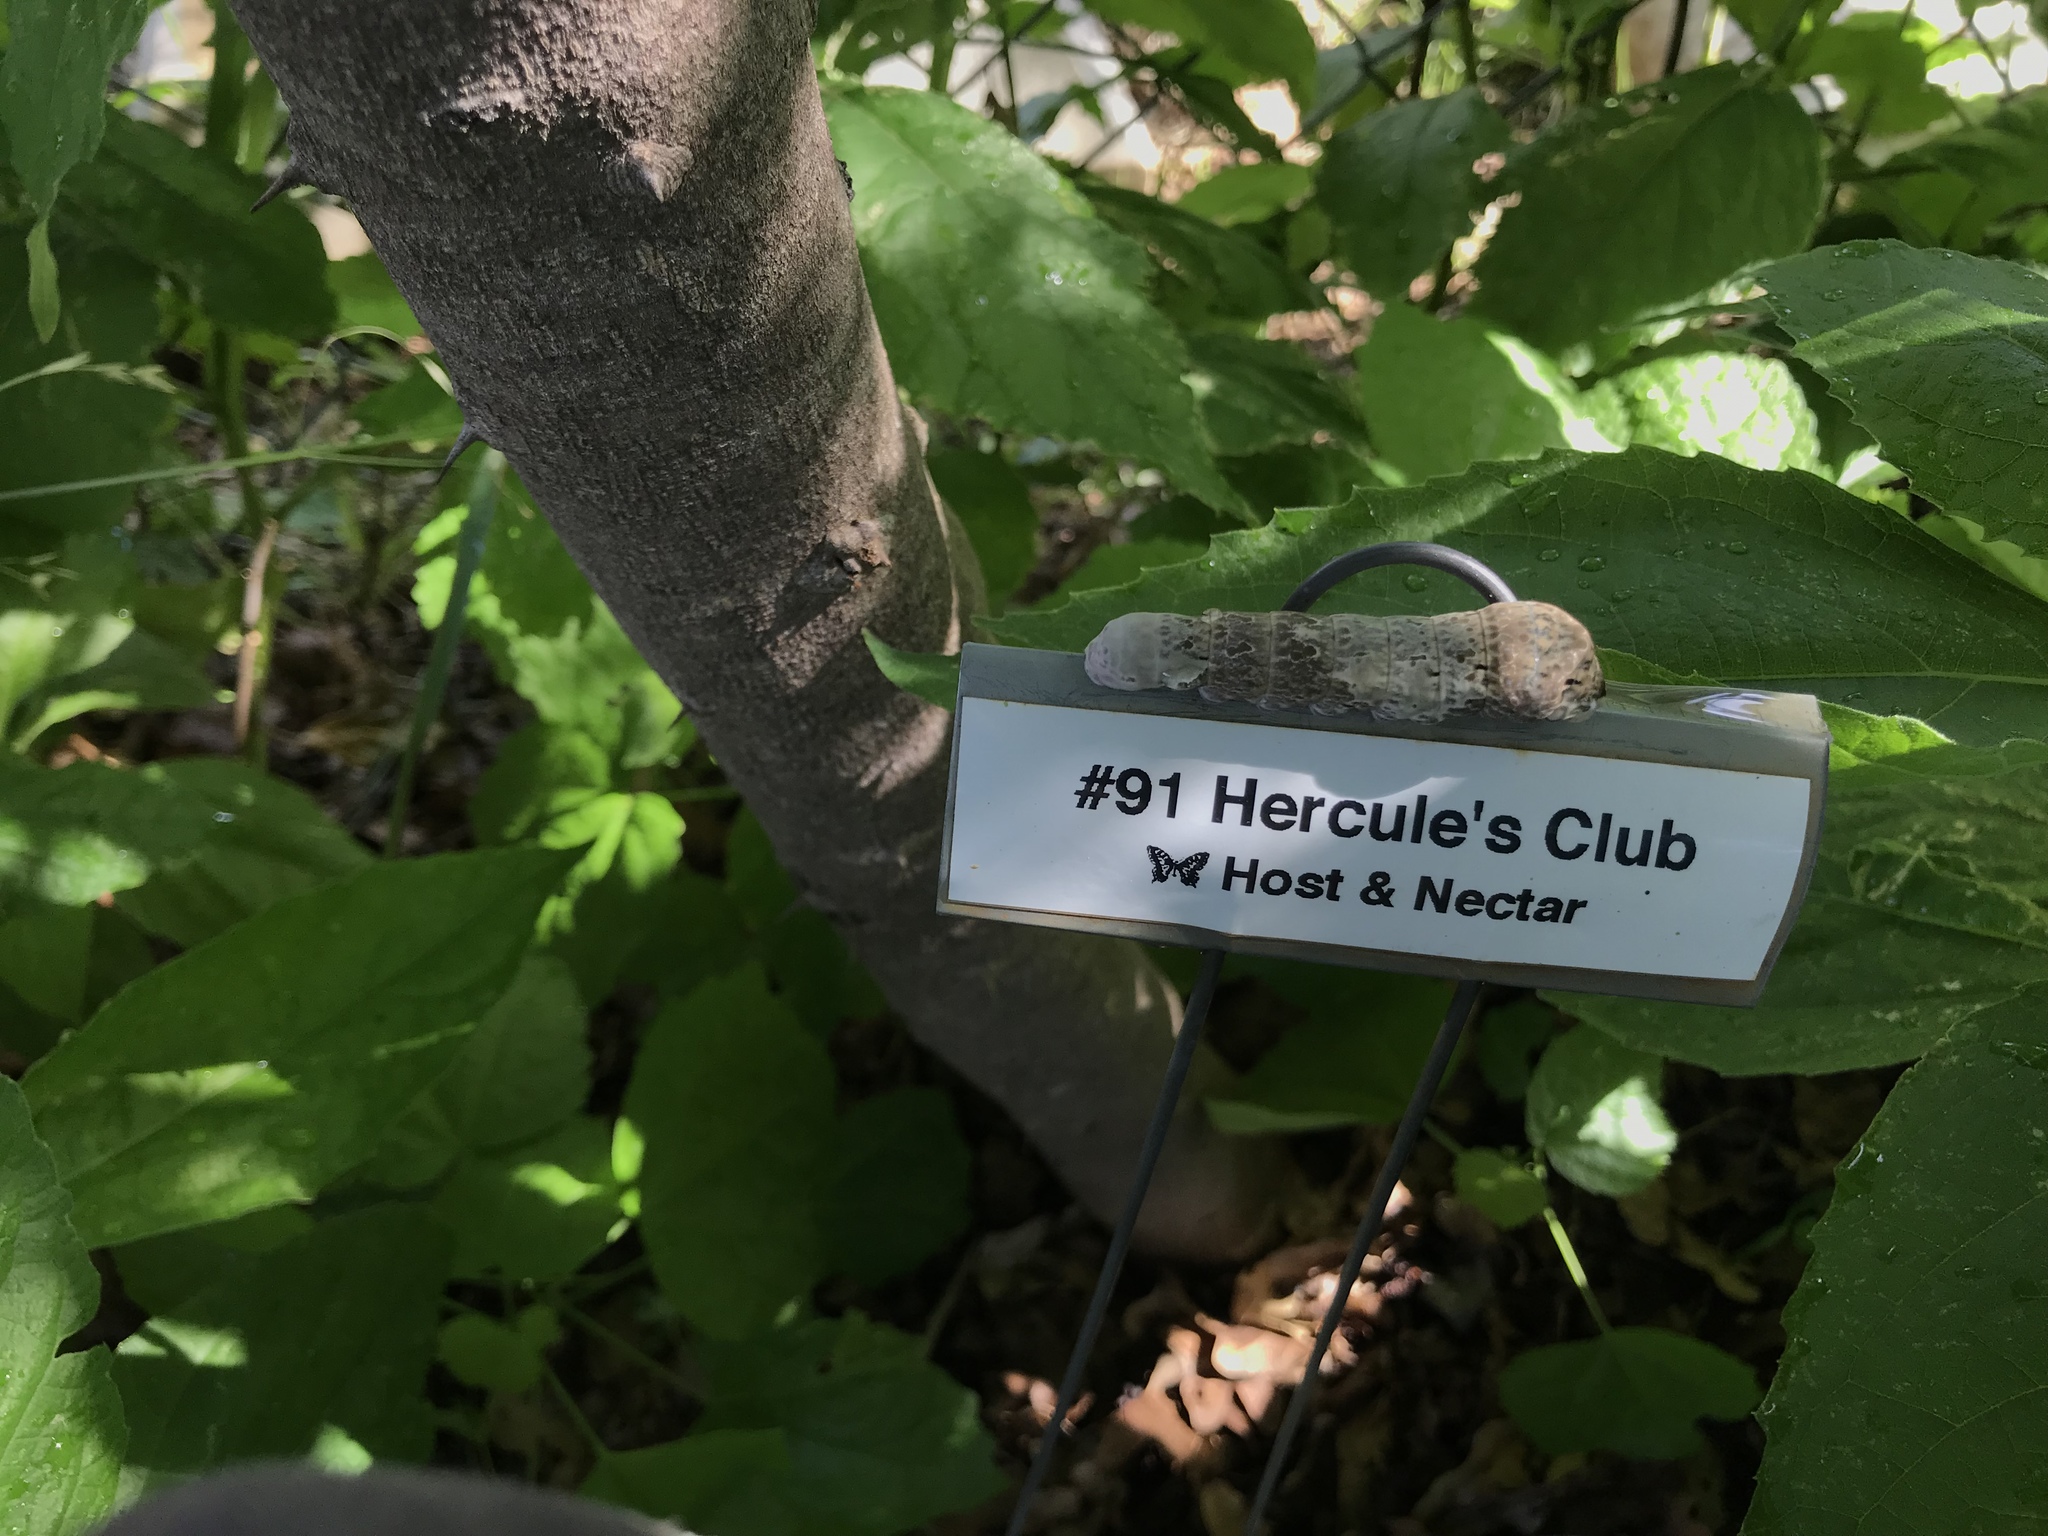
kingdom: Animalia
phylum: Arthropoda
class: Insecta
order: Lepidoptera
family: Papilionidae
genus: Papilio
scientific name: Papilio cresphontes
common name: Giant swallowtail
